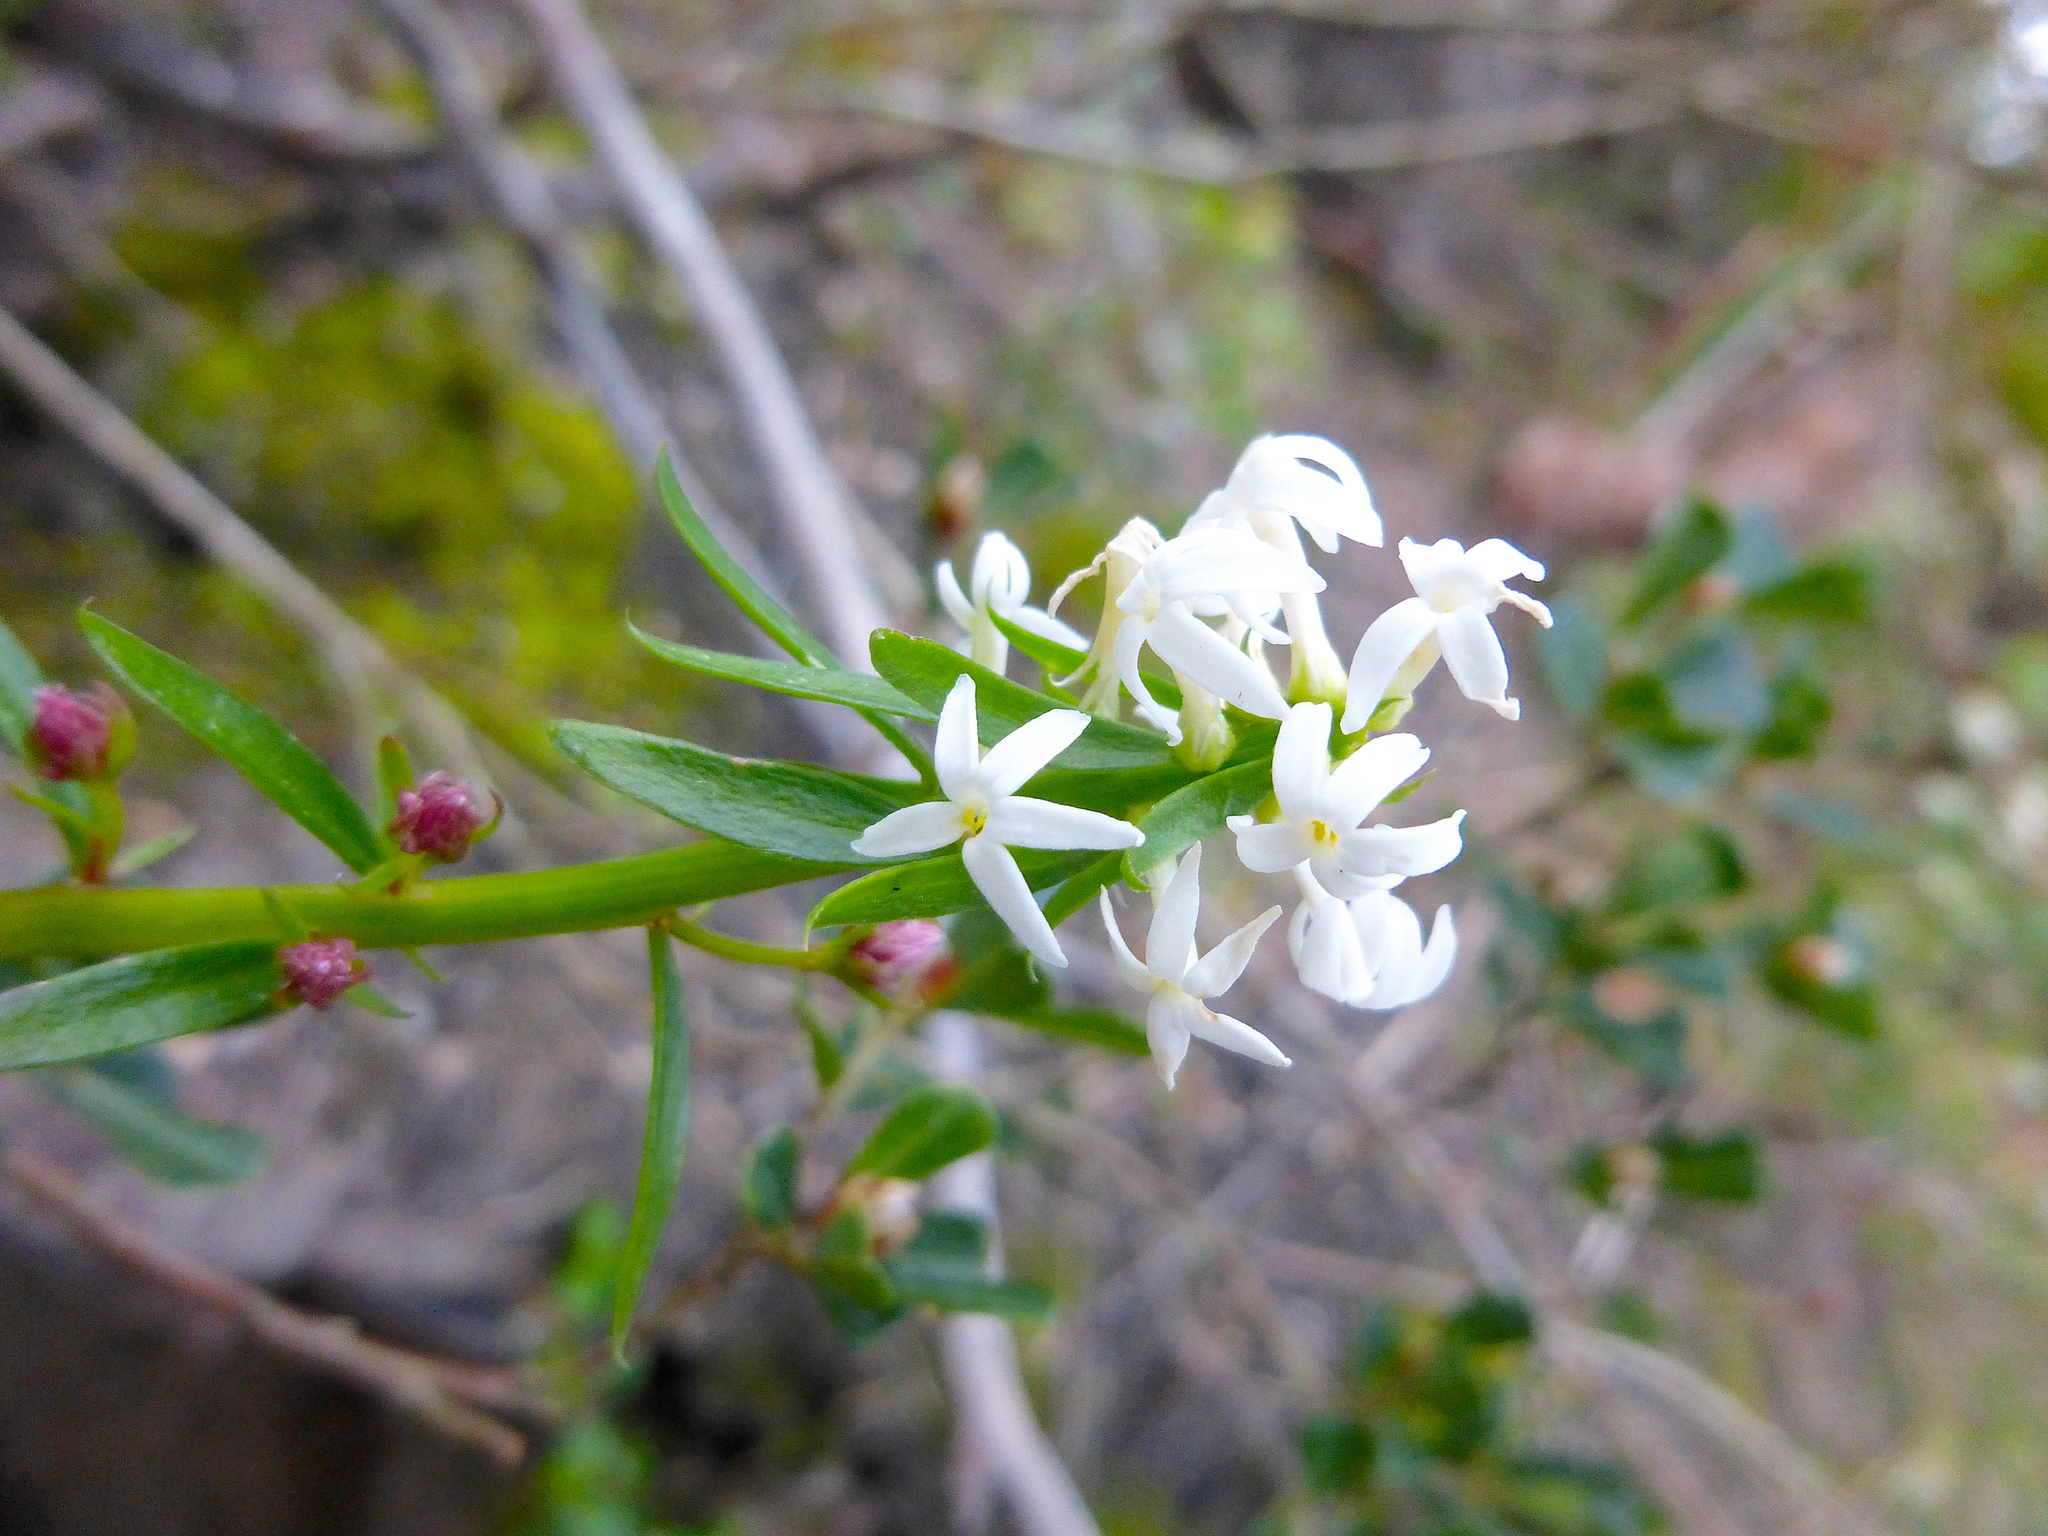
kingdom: Plantae
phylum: Tracheophyta
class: Magnoliopsida
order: Celastrales
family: Celastraceae
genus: Stackhousia
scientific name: Stackhousia monogyna
